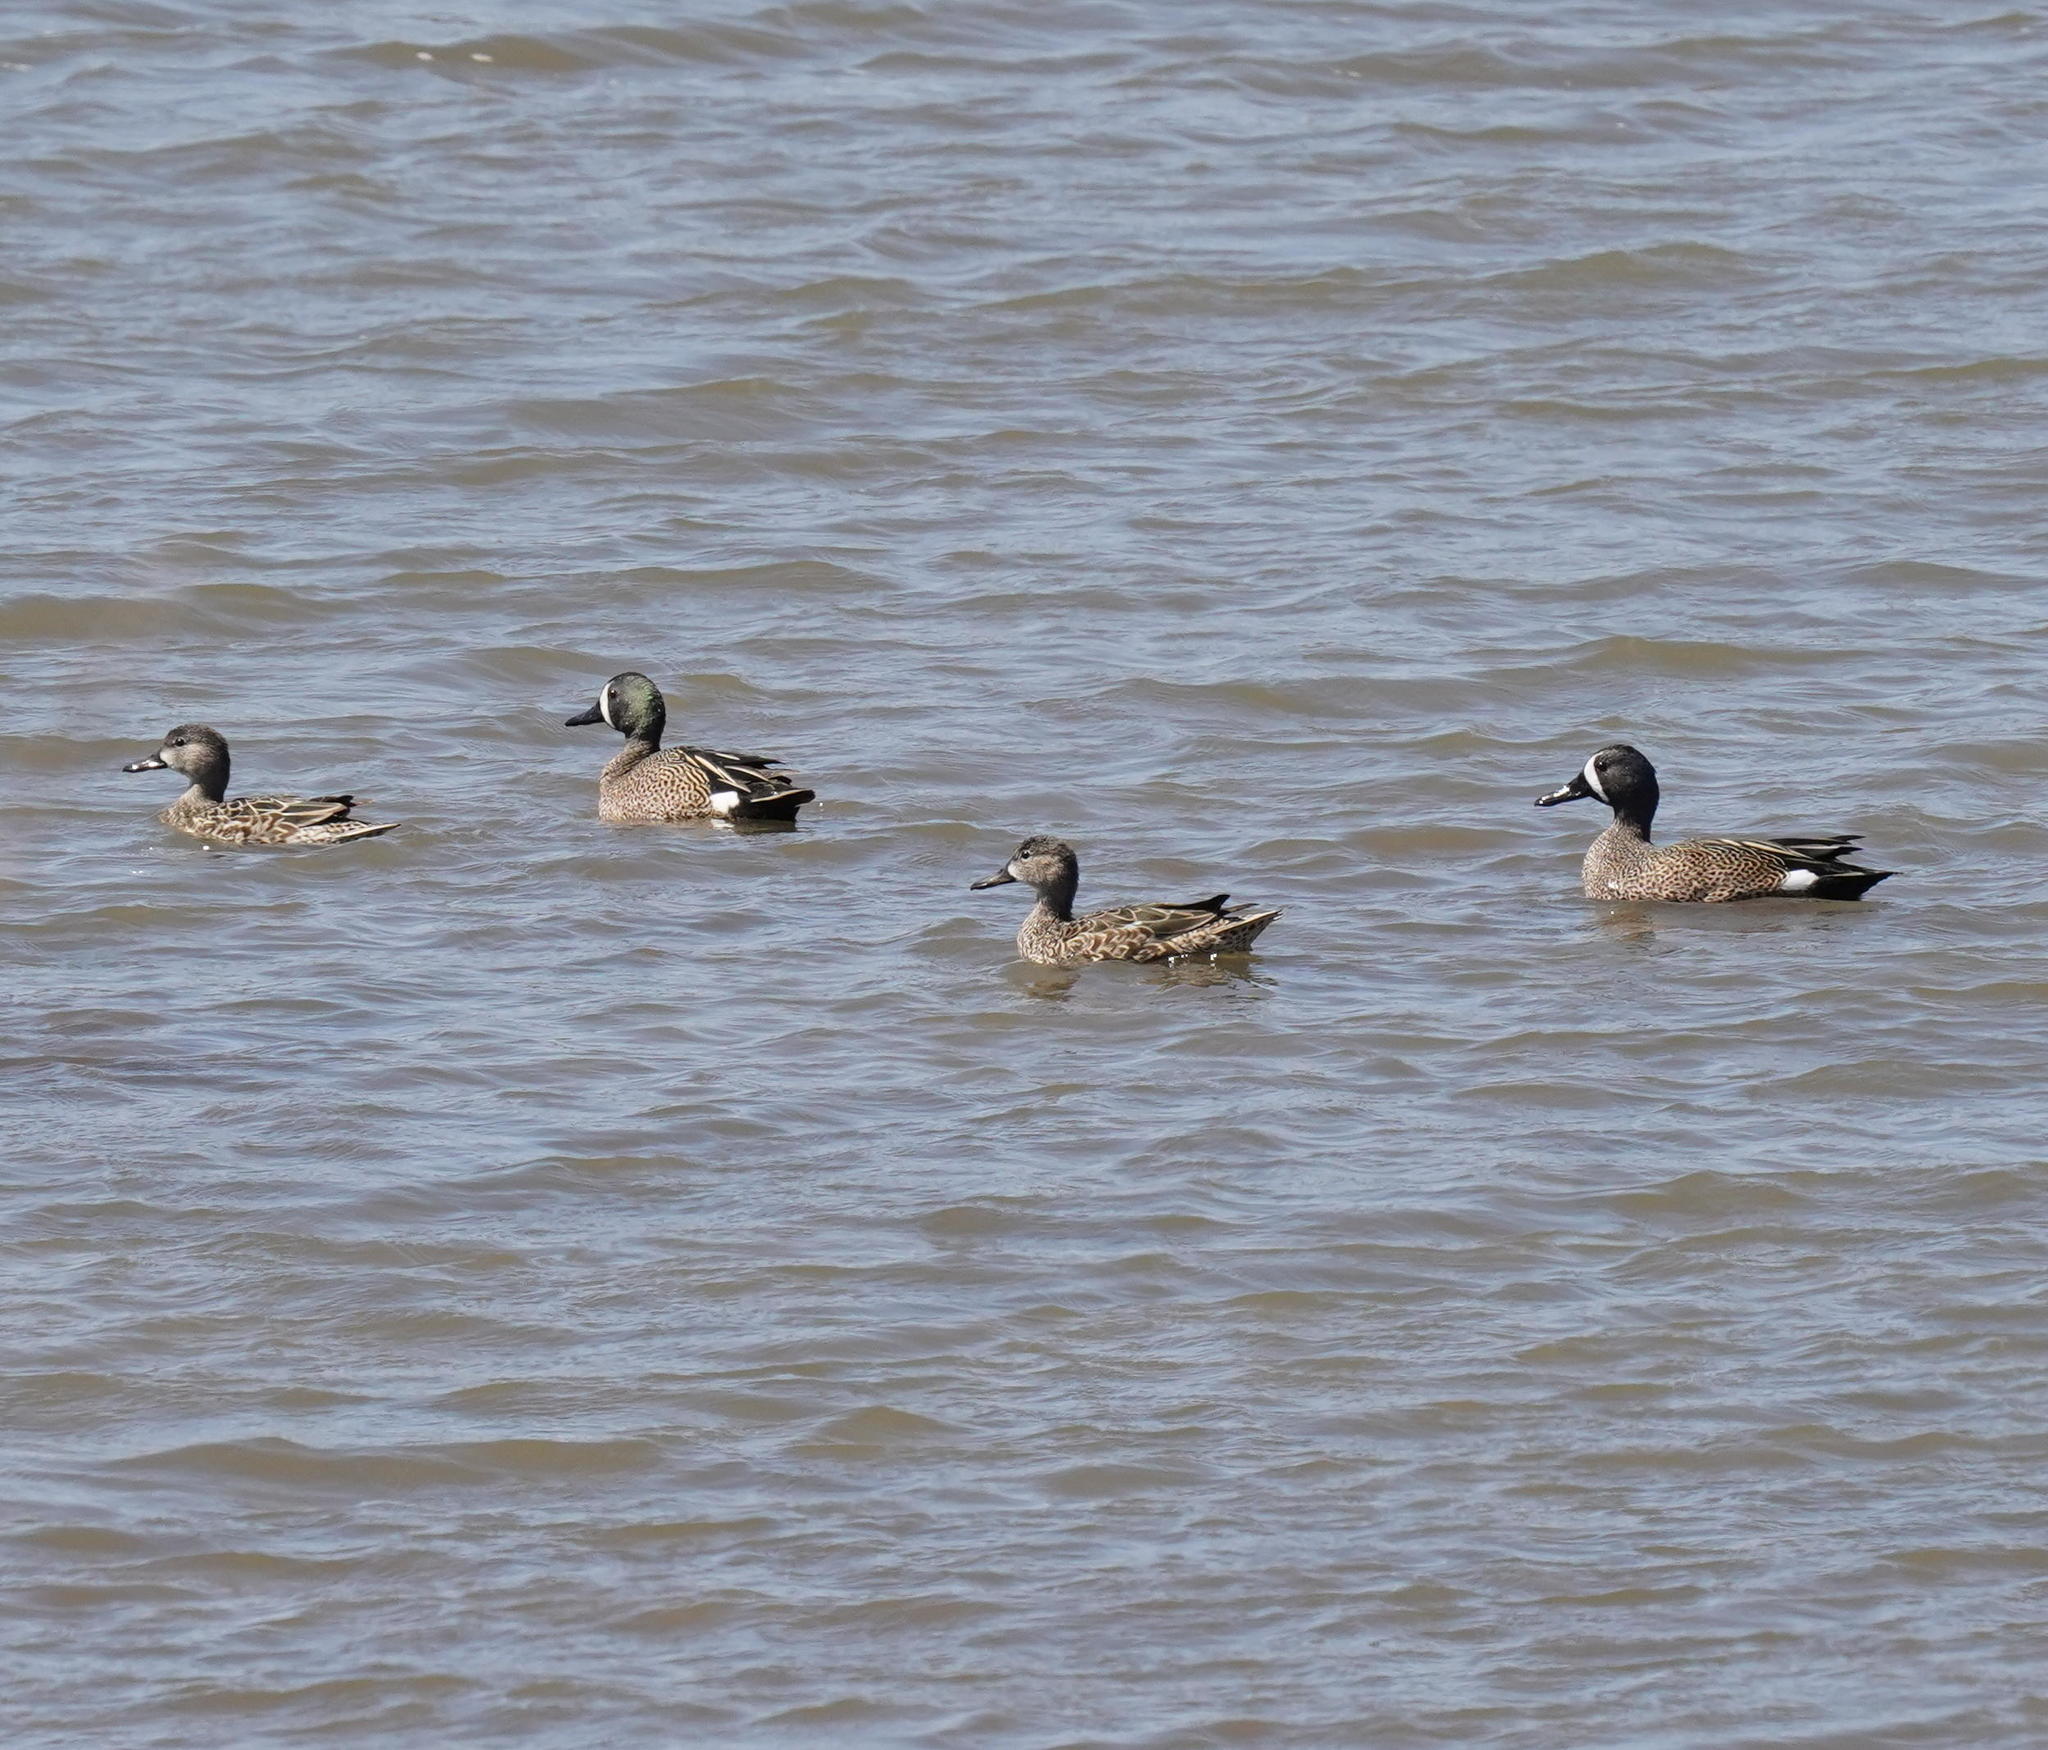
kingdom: Animalia
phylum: Chordata
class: Aves
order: Anseriformes
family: Anatidae
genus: Spatula
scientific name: Spatula discors
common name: Blue-winged teal
